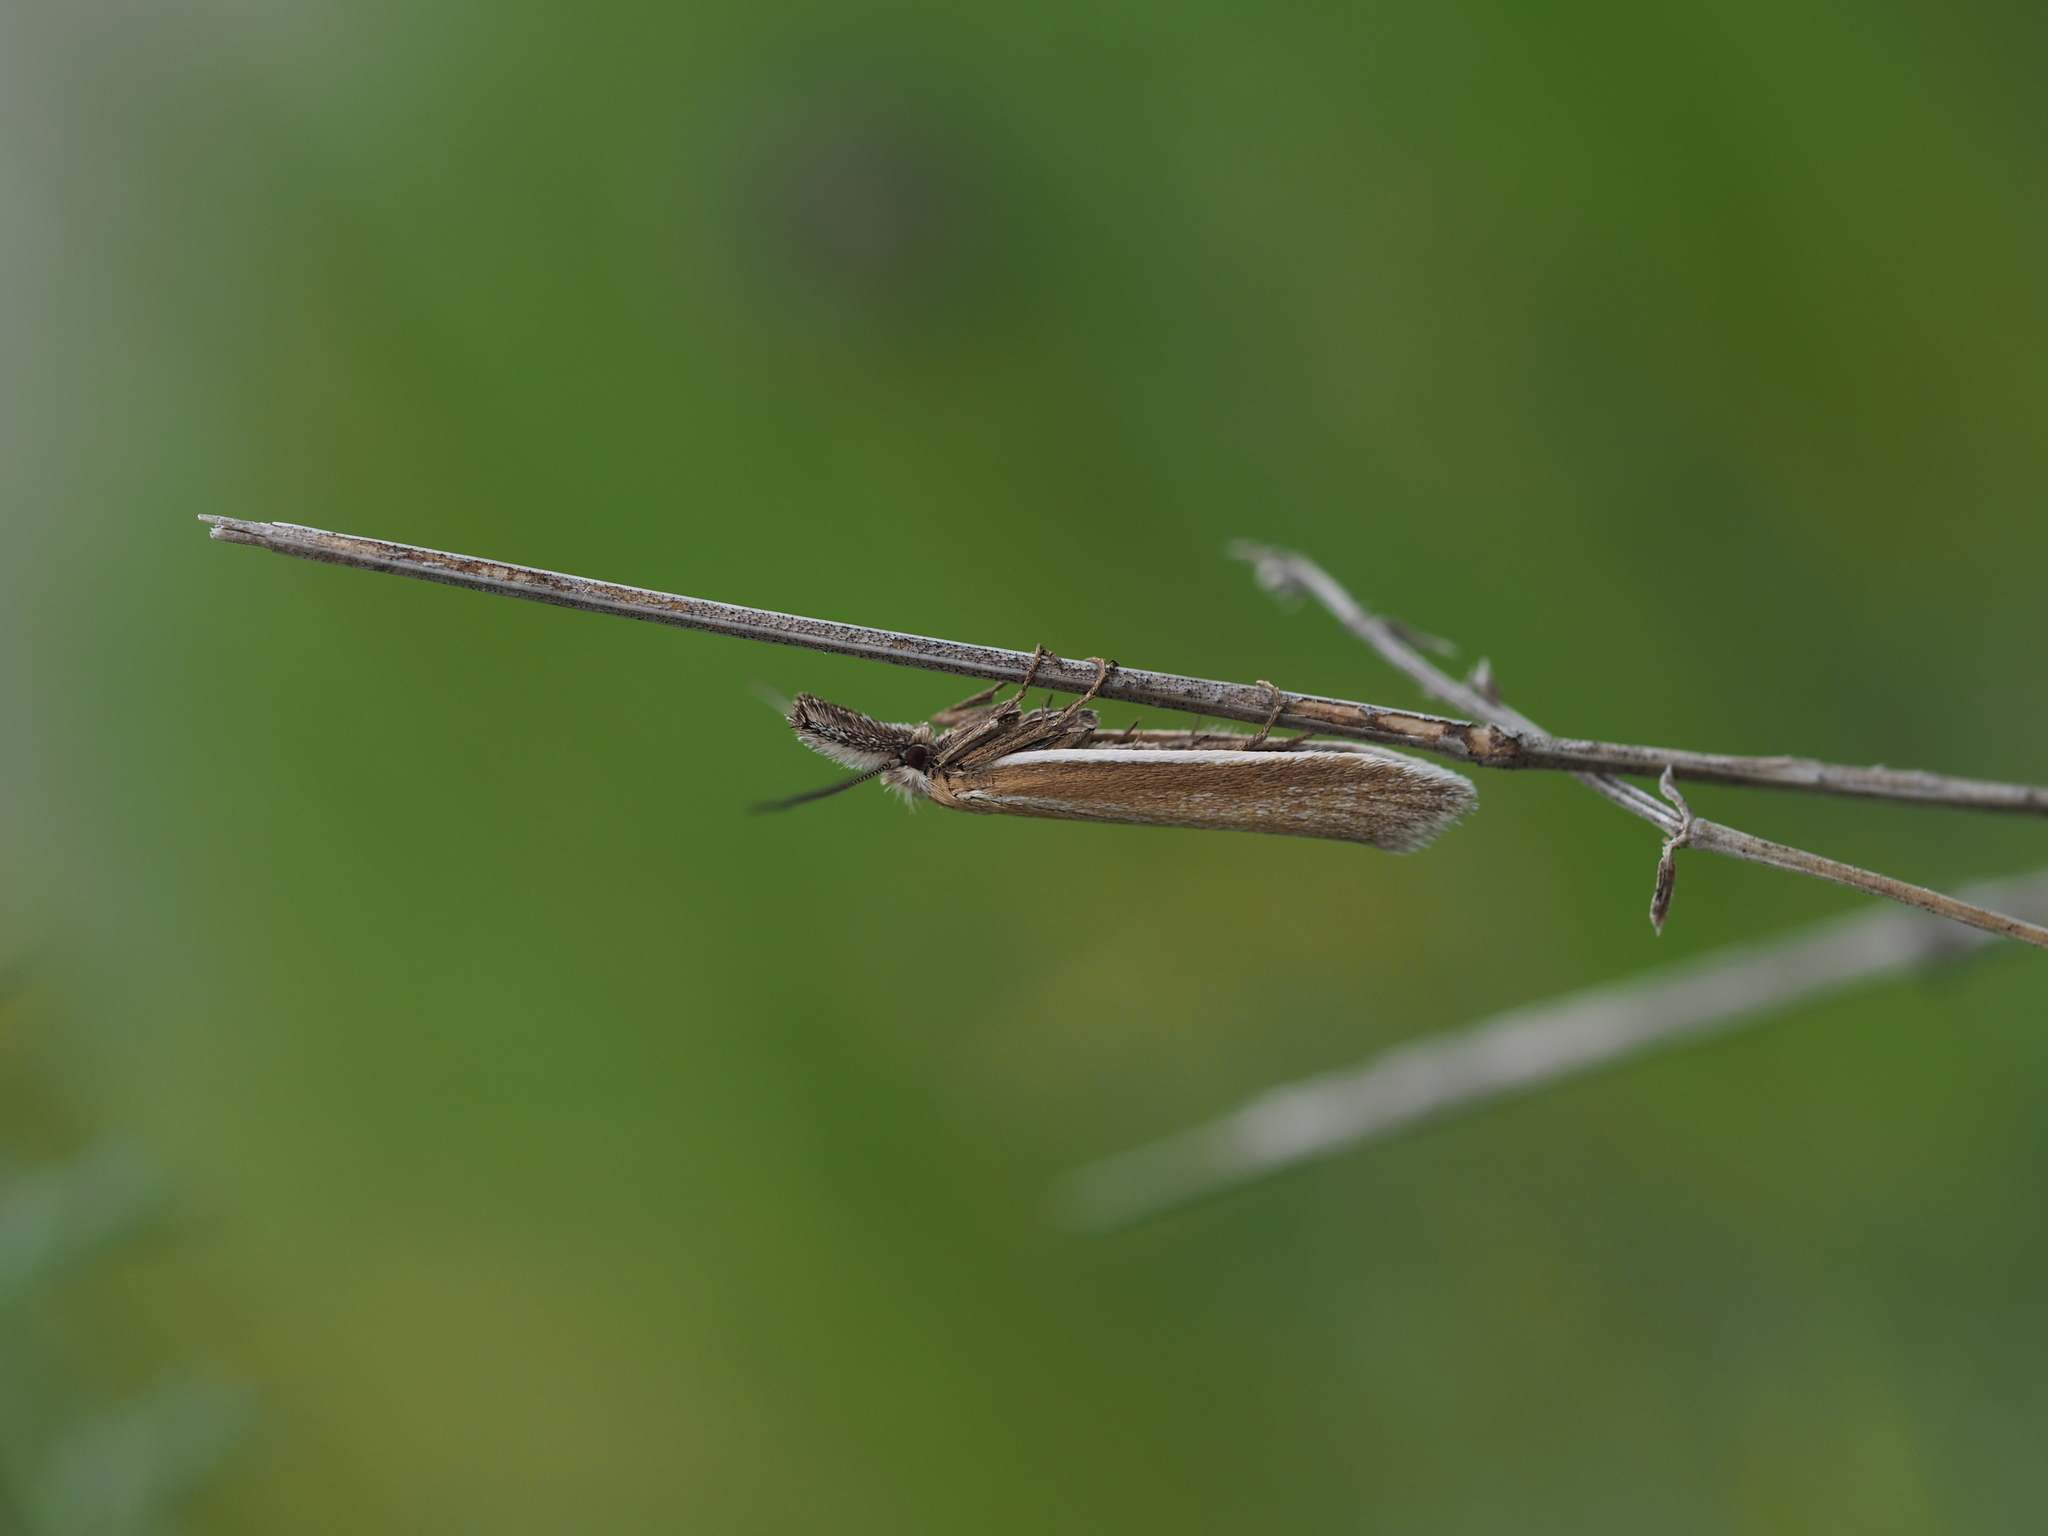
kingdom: Animalia
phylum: Arthropoda
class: Insecta
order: Lepidoptera
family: Oecophoridae
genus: Pleurota
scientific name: Pleurota marginella
